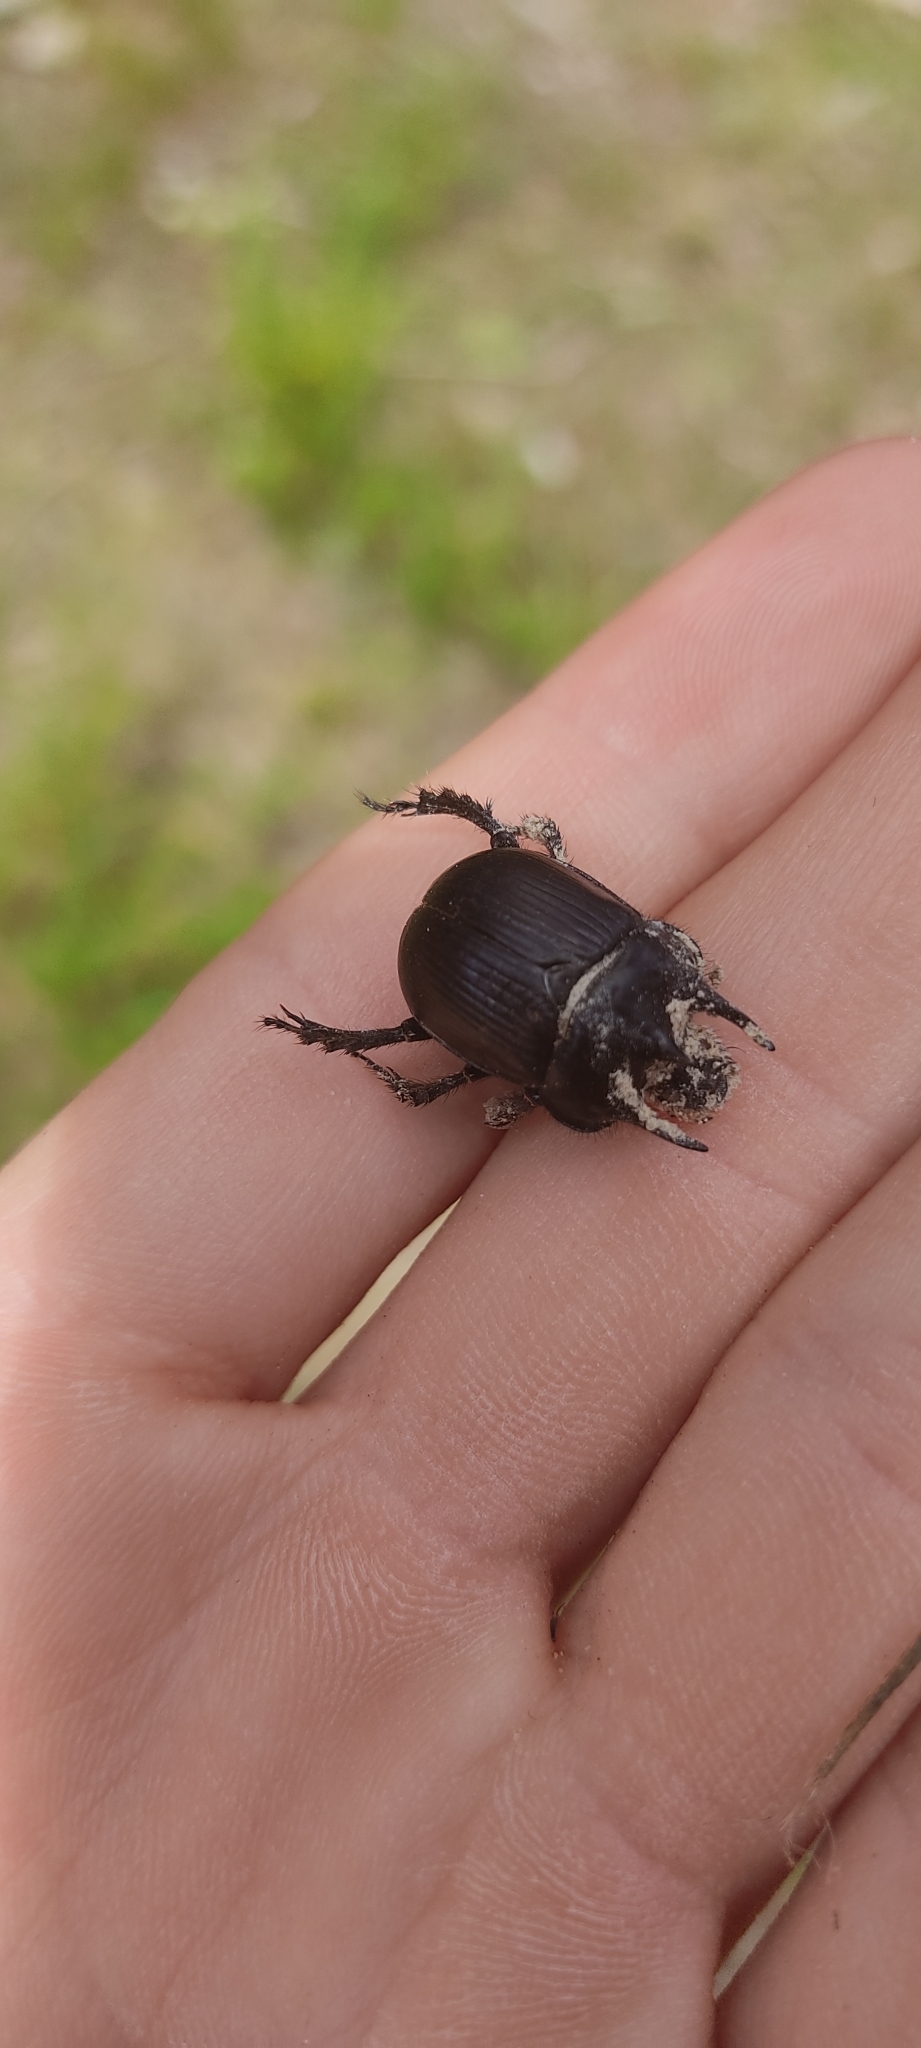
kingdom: Animalia
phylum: Arthropoda
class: Insecta
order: Coleoptera
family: Geotrupidae
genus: Typhaeus
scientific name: Typhaeus typhoeus
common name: Minotaur beetle
